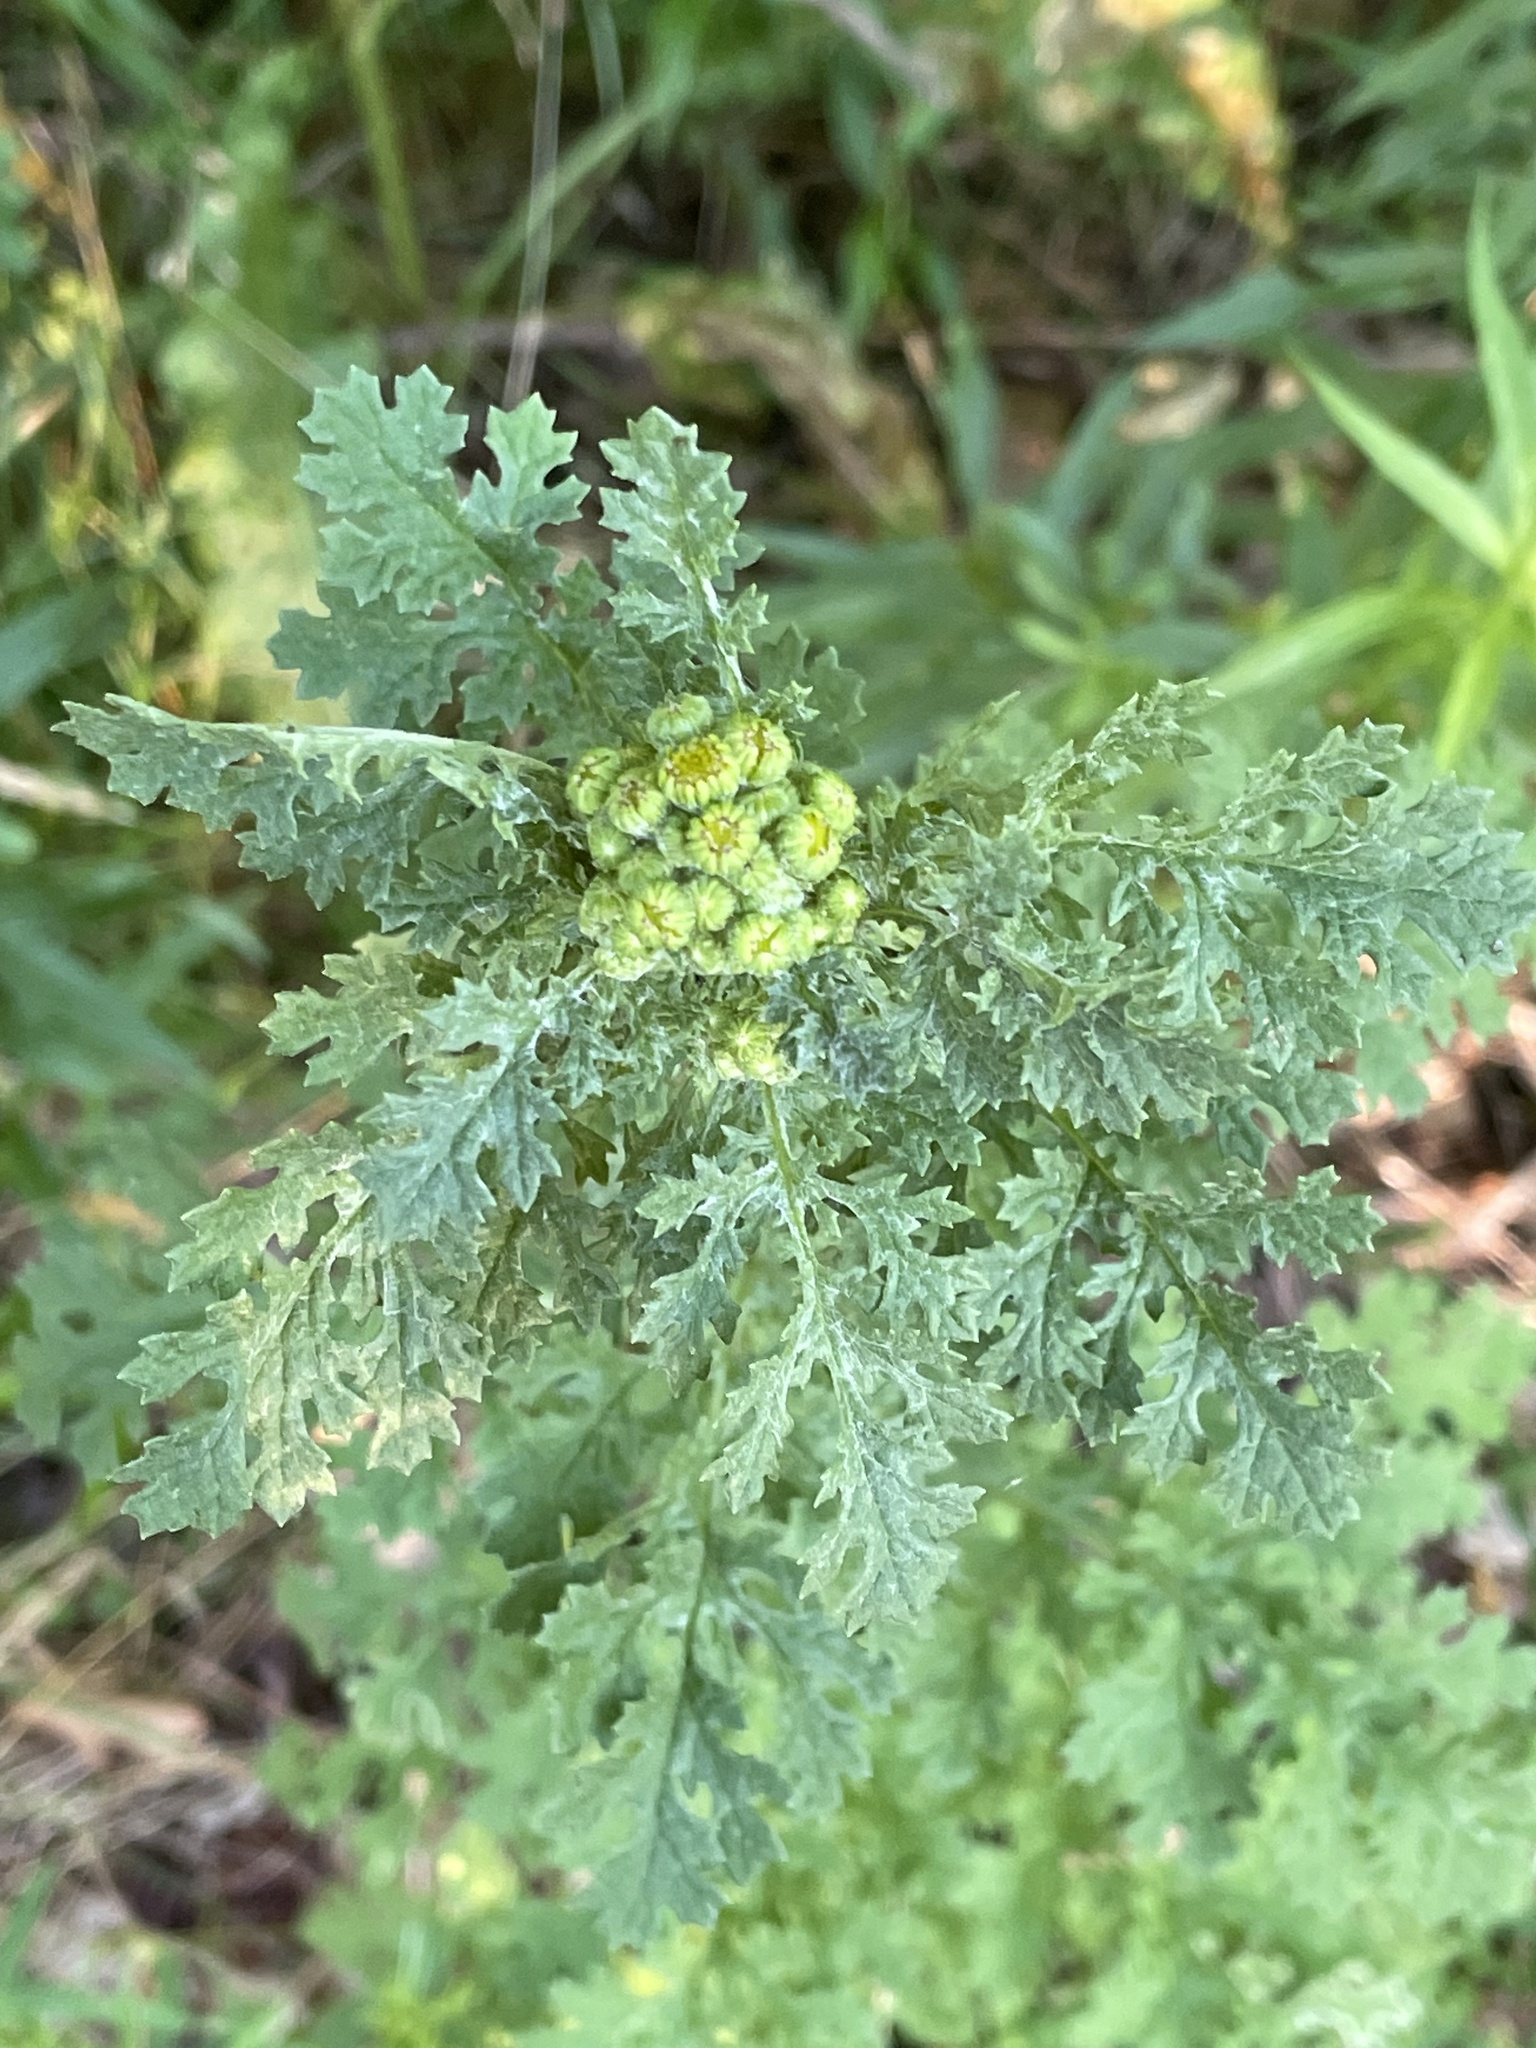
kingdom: Plantae
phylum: Tracheophyta
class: Magnoliopsida
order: Asterales
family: Asteraceae
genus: Jacobaea
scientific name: Jacobaea vulgaris
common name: Stinking willie
